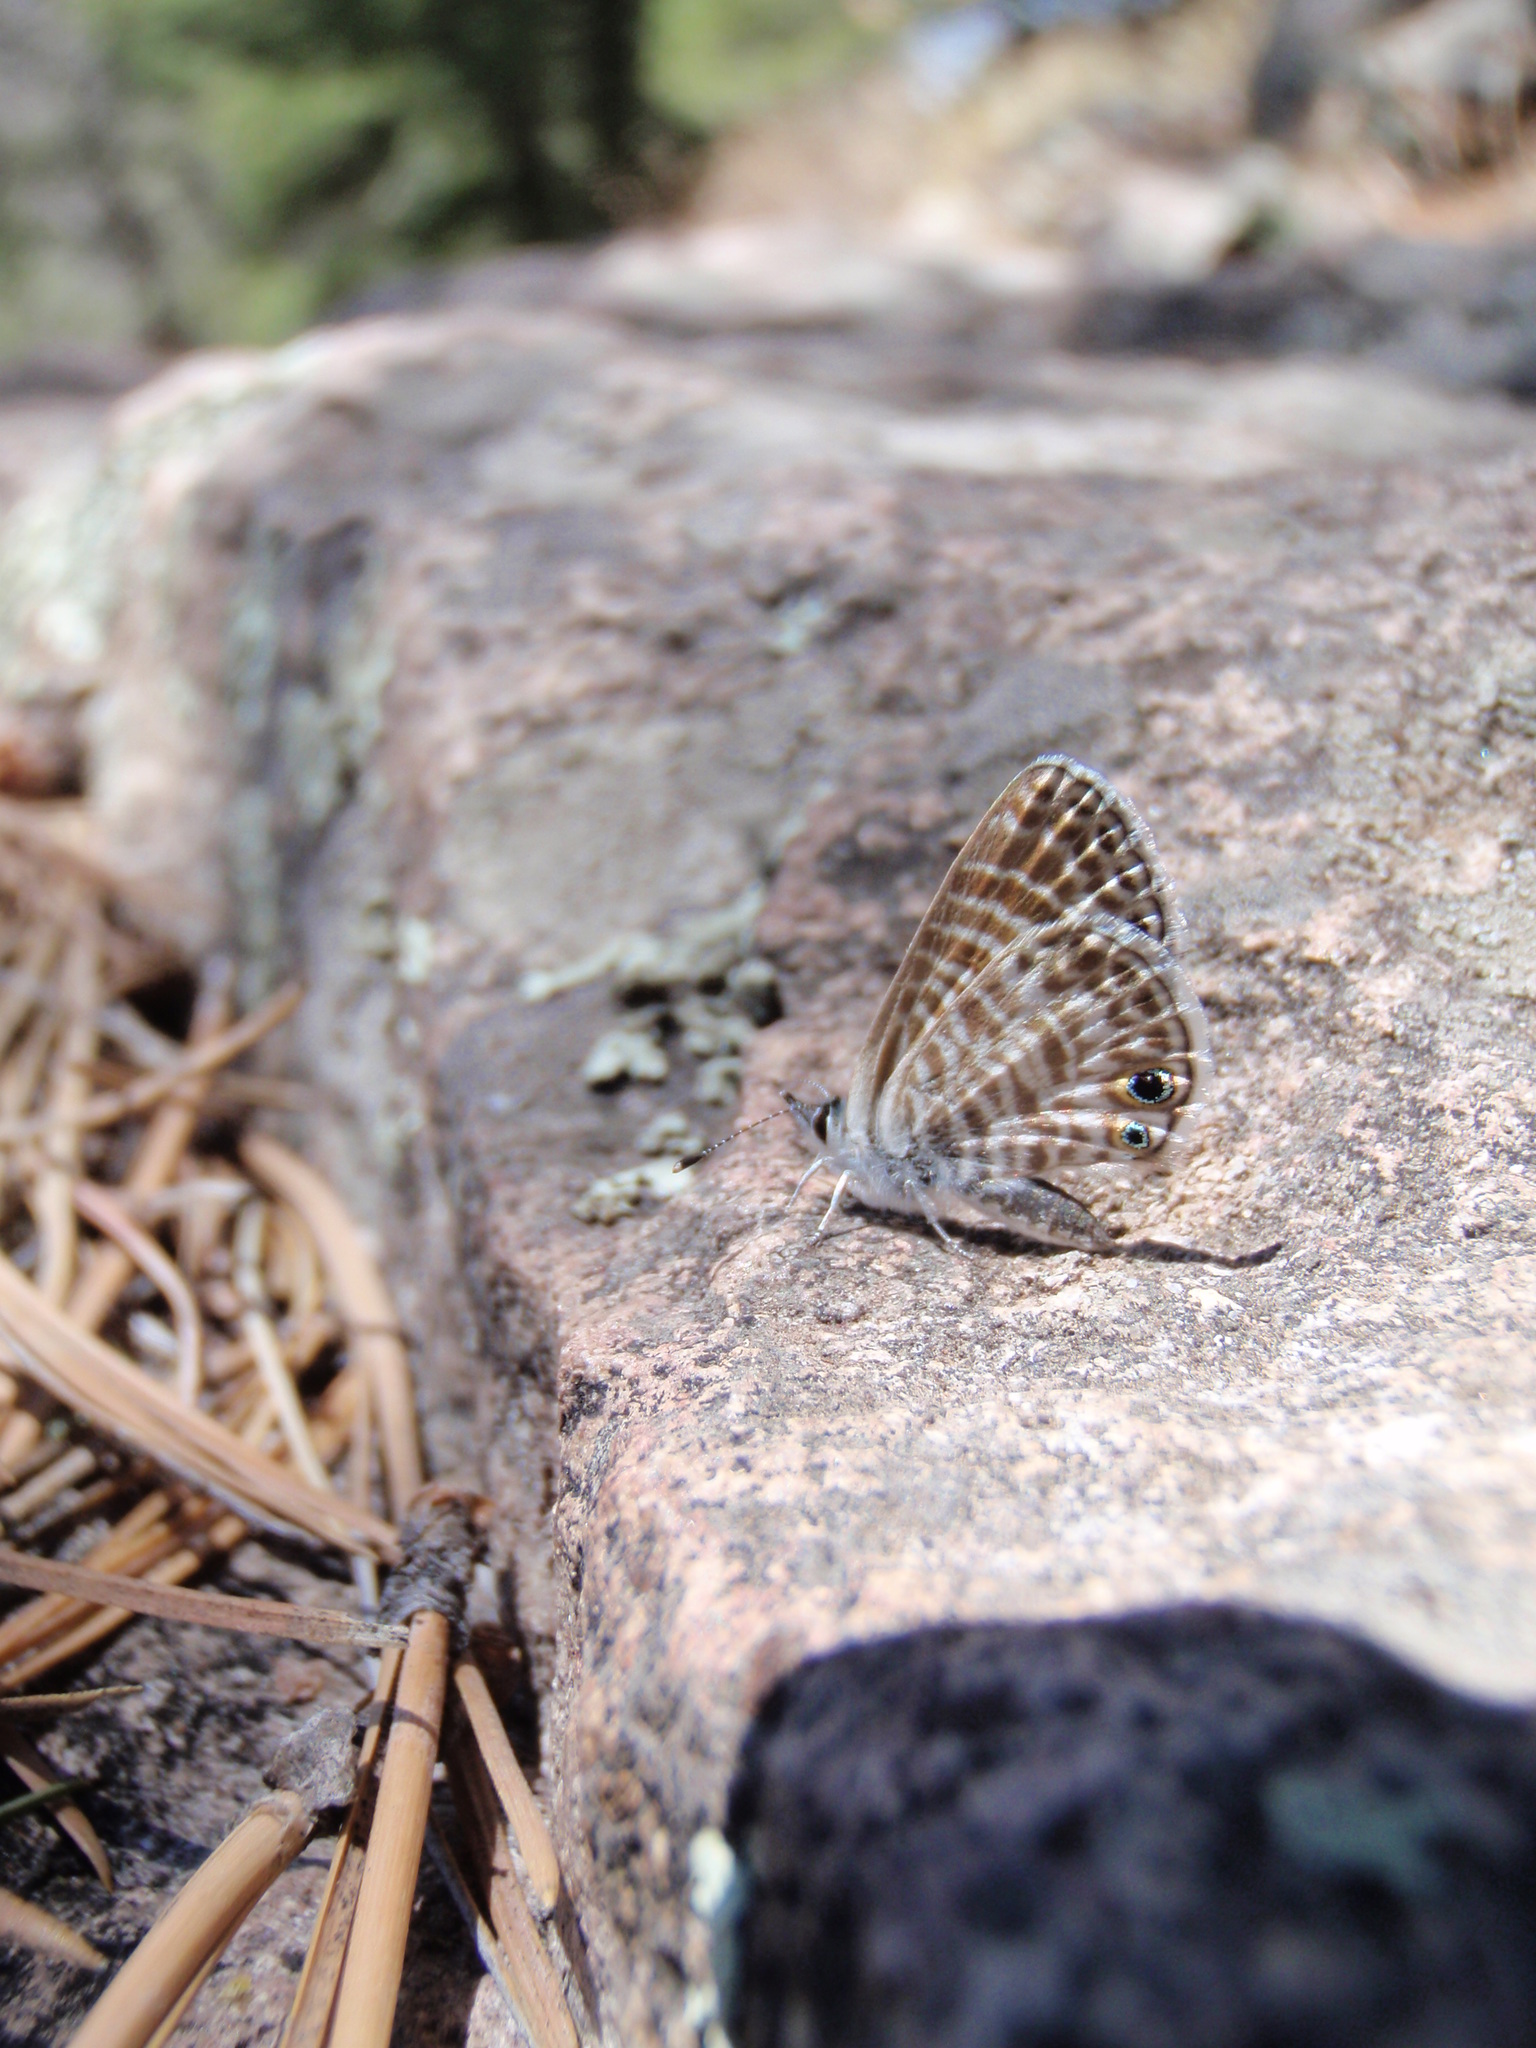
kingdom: Animalia
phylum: Arthropoda
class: Insecta
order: Lepidoptera
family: Lycaenidae
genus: Leptotes
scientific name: Leptotes marina
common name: Marine blue
